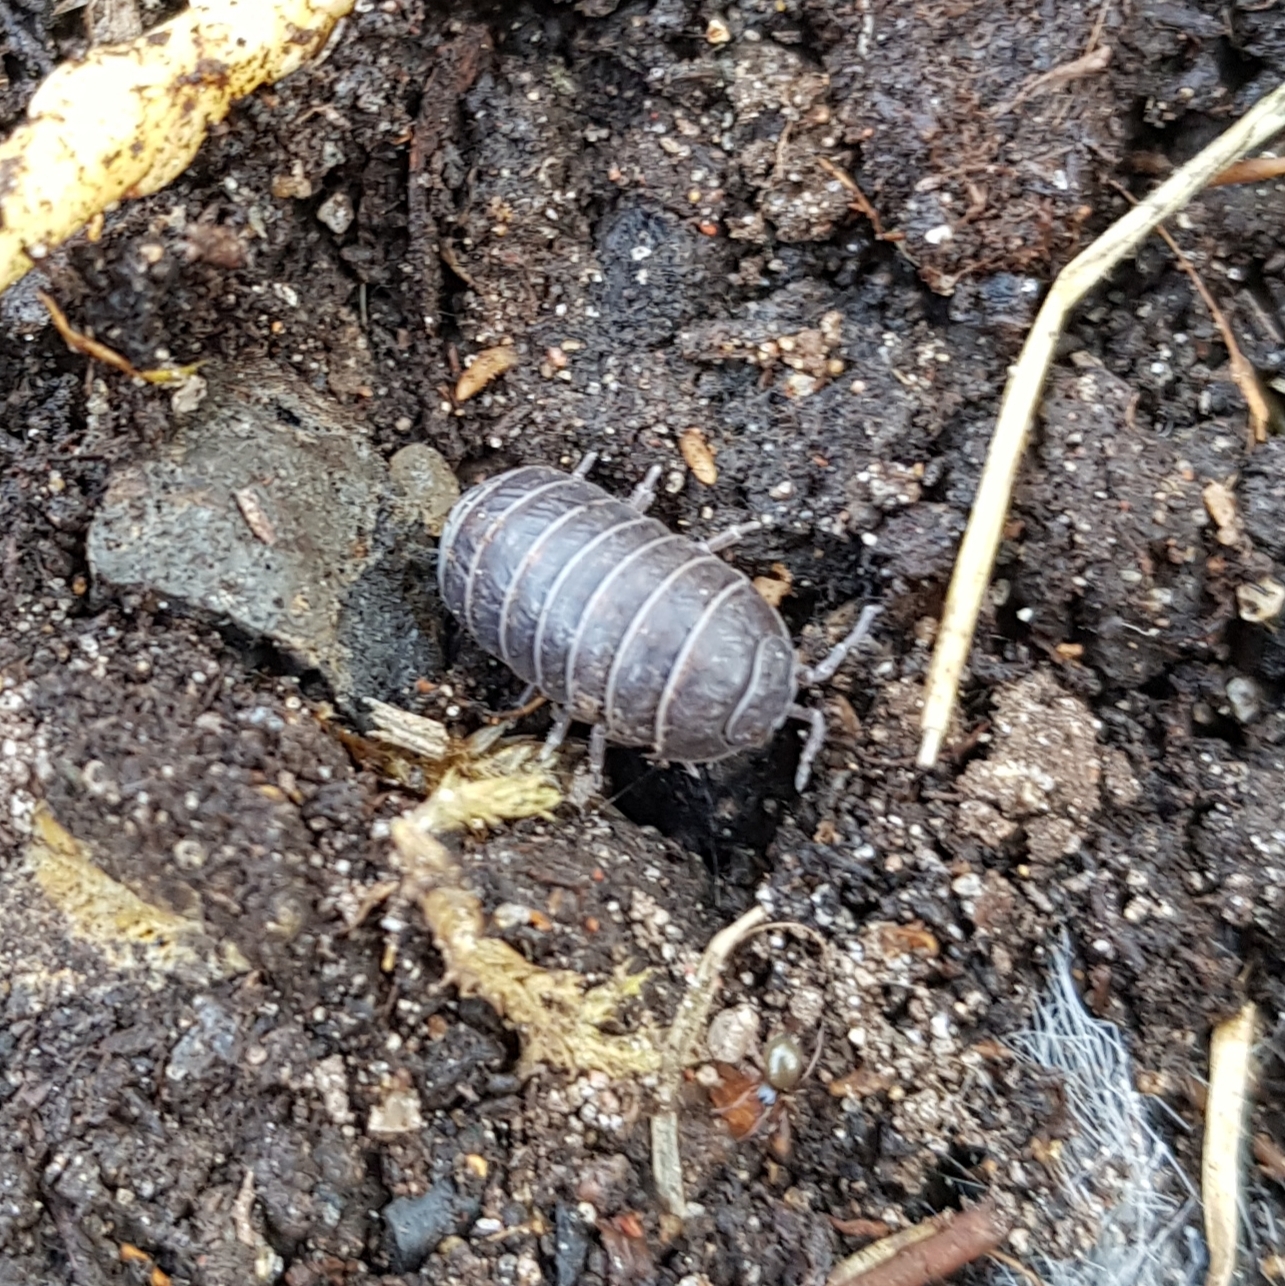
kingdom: Animalia
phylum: Arthropoda
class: Malacostraca
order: Isopoda
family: Armadillidiidae
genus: Armadillidium
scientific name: Armadillidium vulgare
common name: Common pill woodlouse
